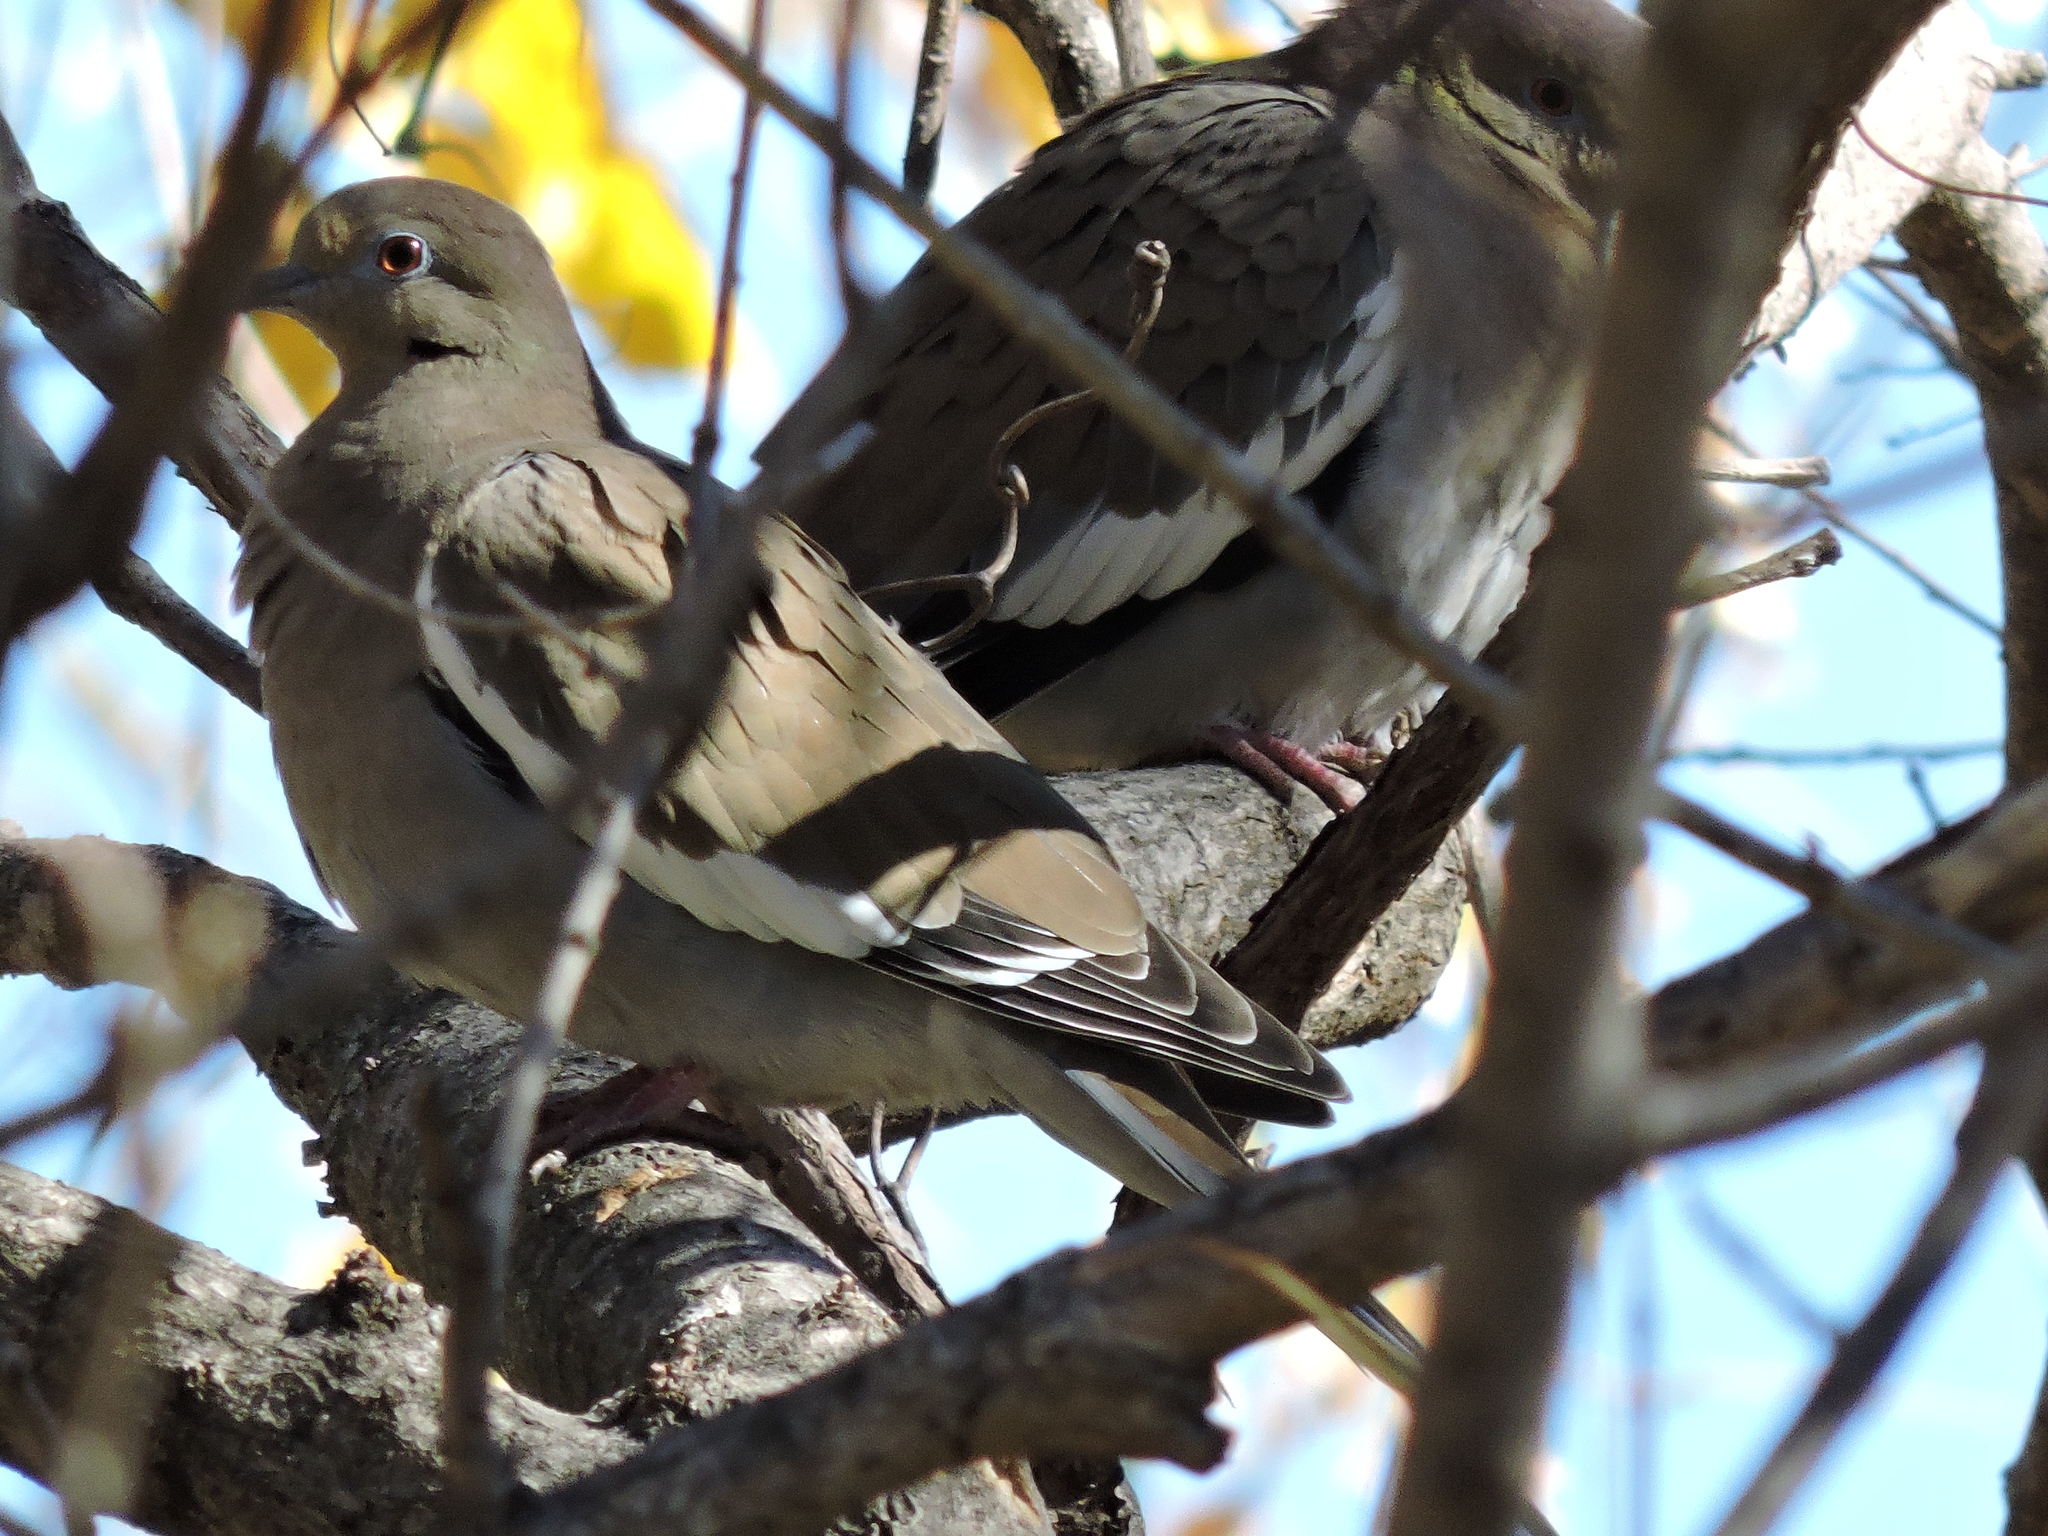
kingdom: Animalia
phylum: Chordata
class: Aves
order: Columbiformes
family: Columbidae
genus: Zenaida
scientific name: Zenaida asiatica
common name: White-winged dove
